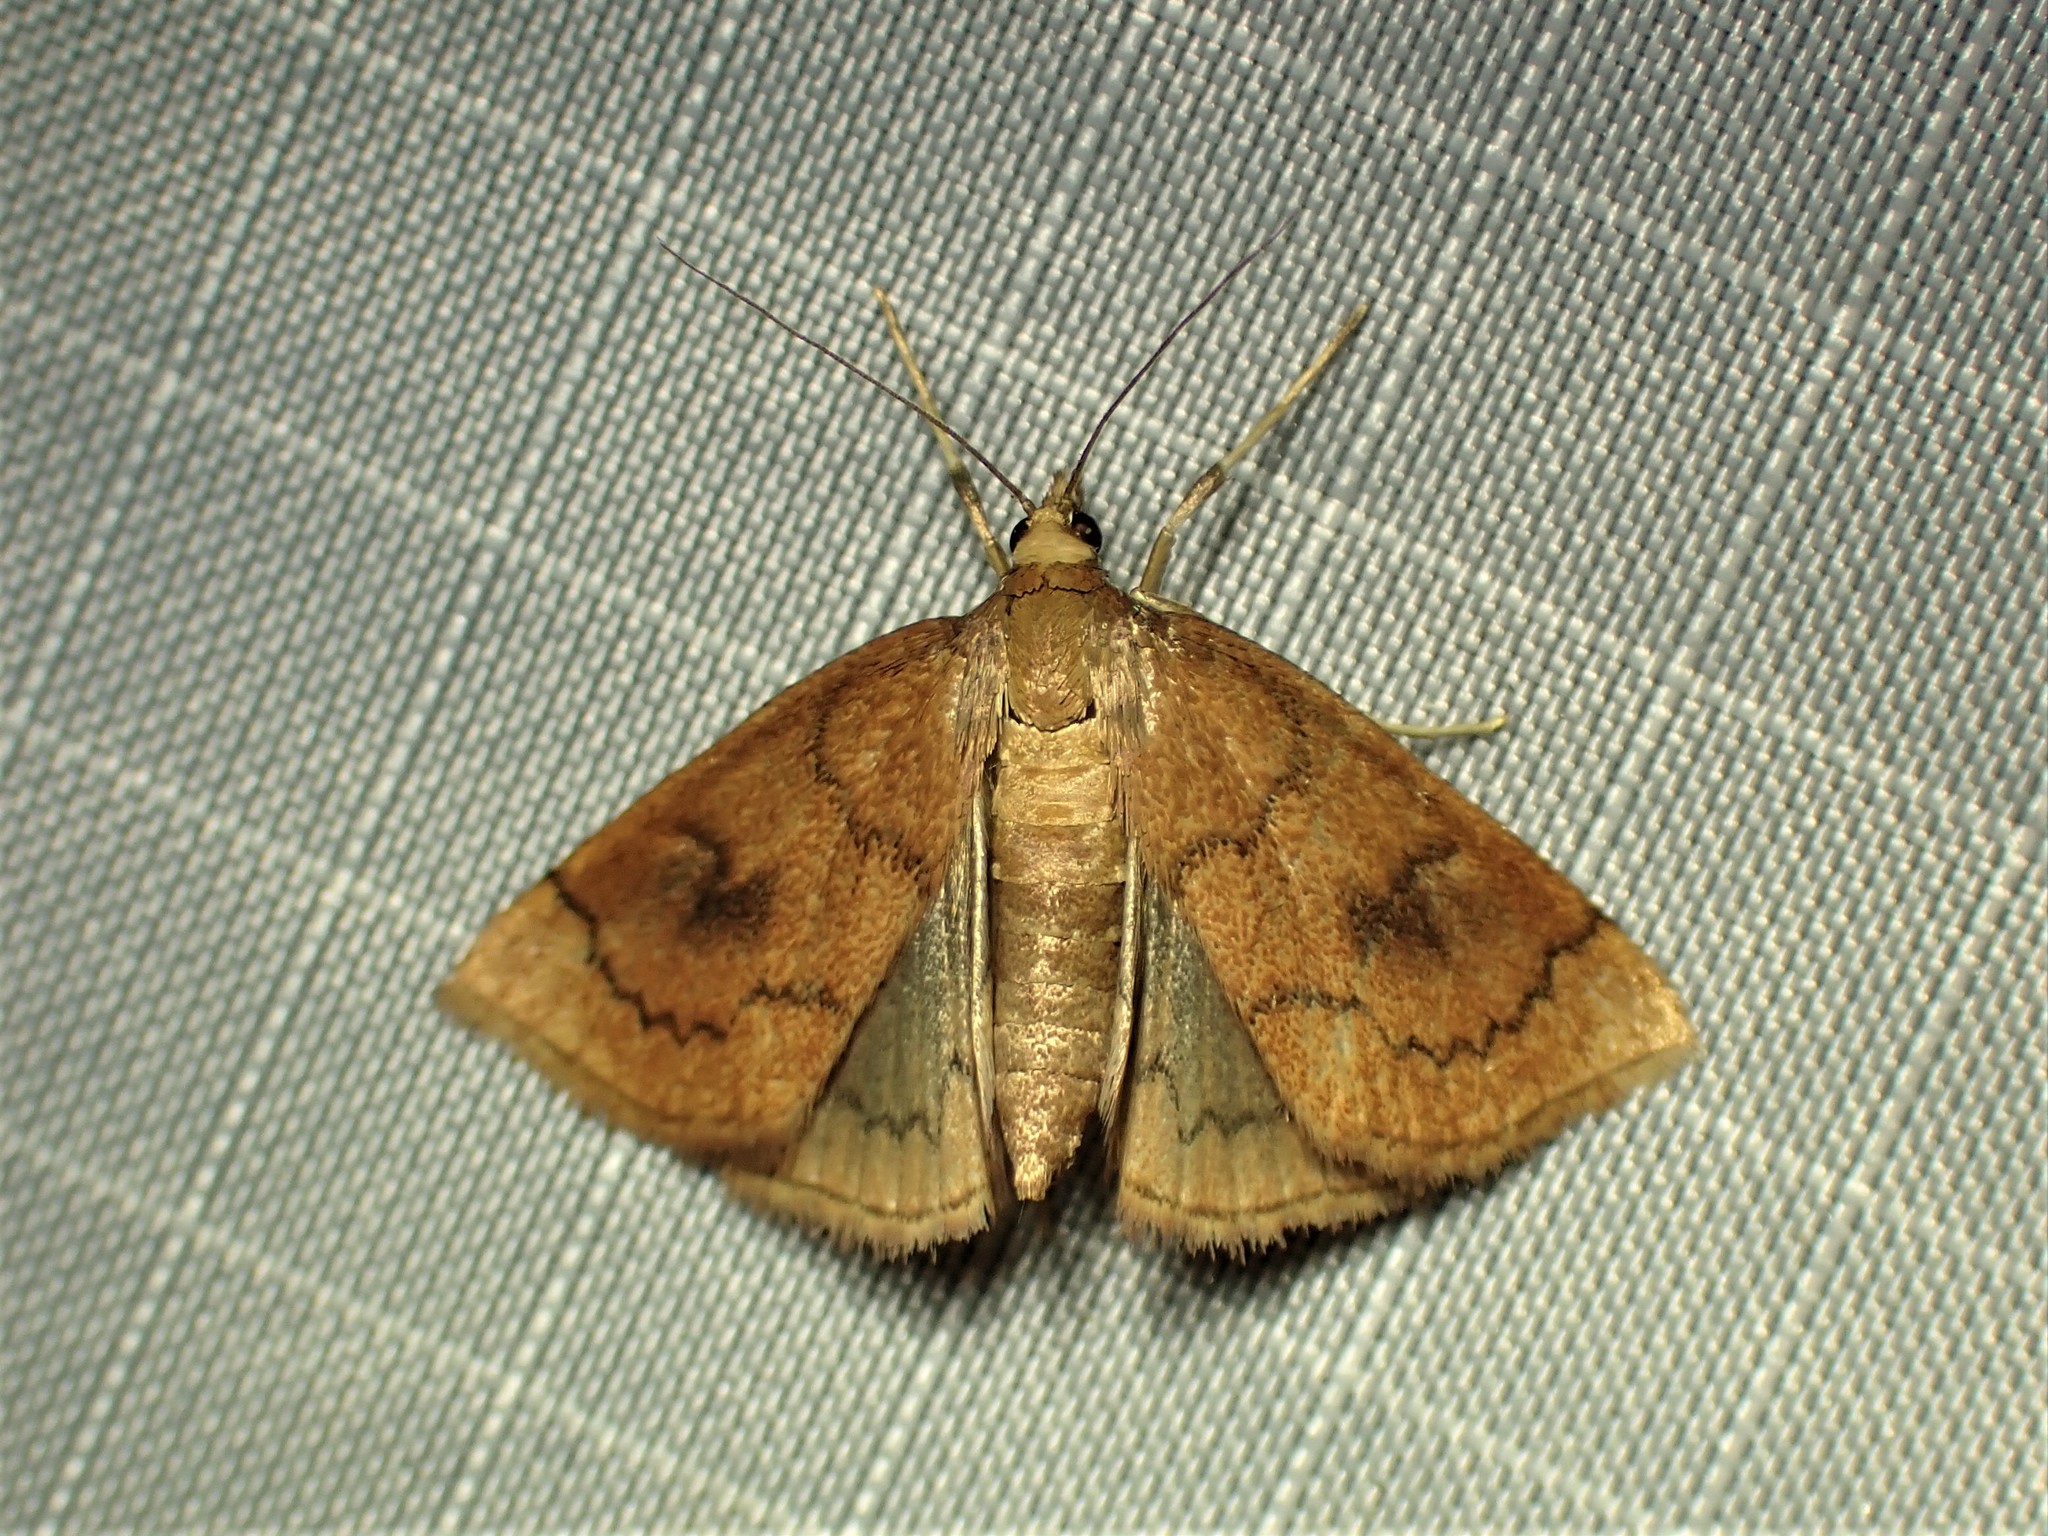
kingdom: Animalia
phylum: Arthropoda
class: Insecta
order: Lepidoptera
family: Crambidae
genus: Fumibotys
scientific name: Fumibotys fumalis
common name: Mint root borer moth
